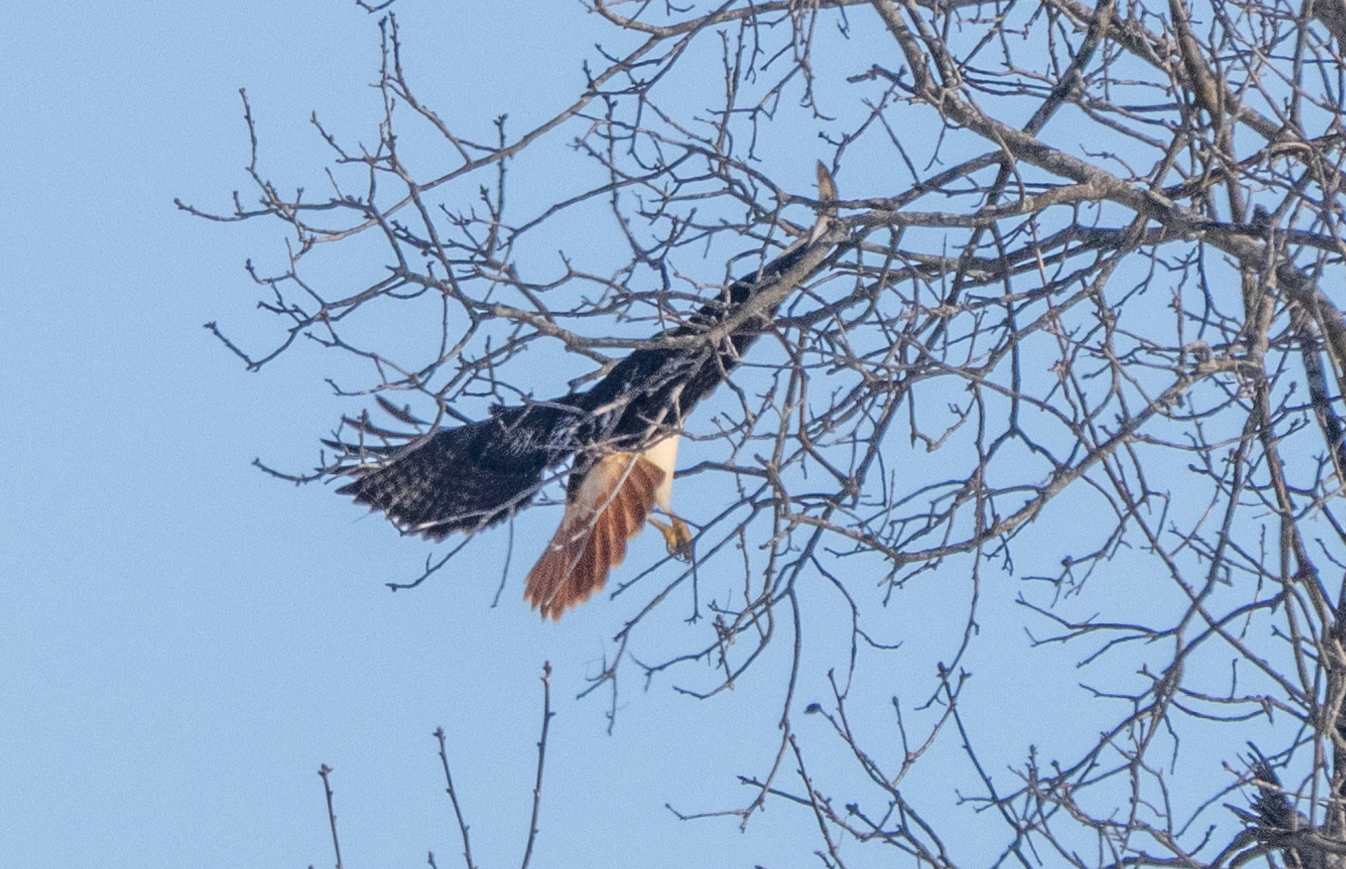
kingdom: Animalia
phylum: Chordata
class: Aves
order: Accipitriformes
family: Accipitridae
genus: Buteo
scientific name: Buteo jamaicensis
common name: Red-tailed hawk
